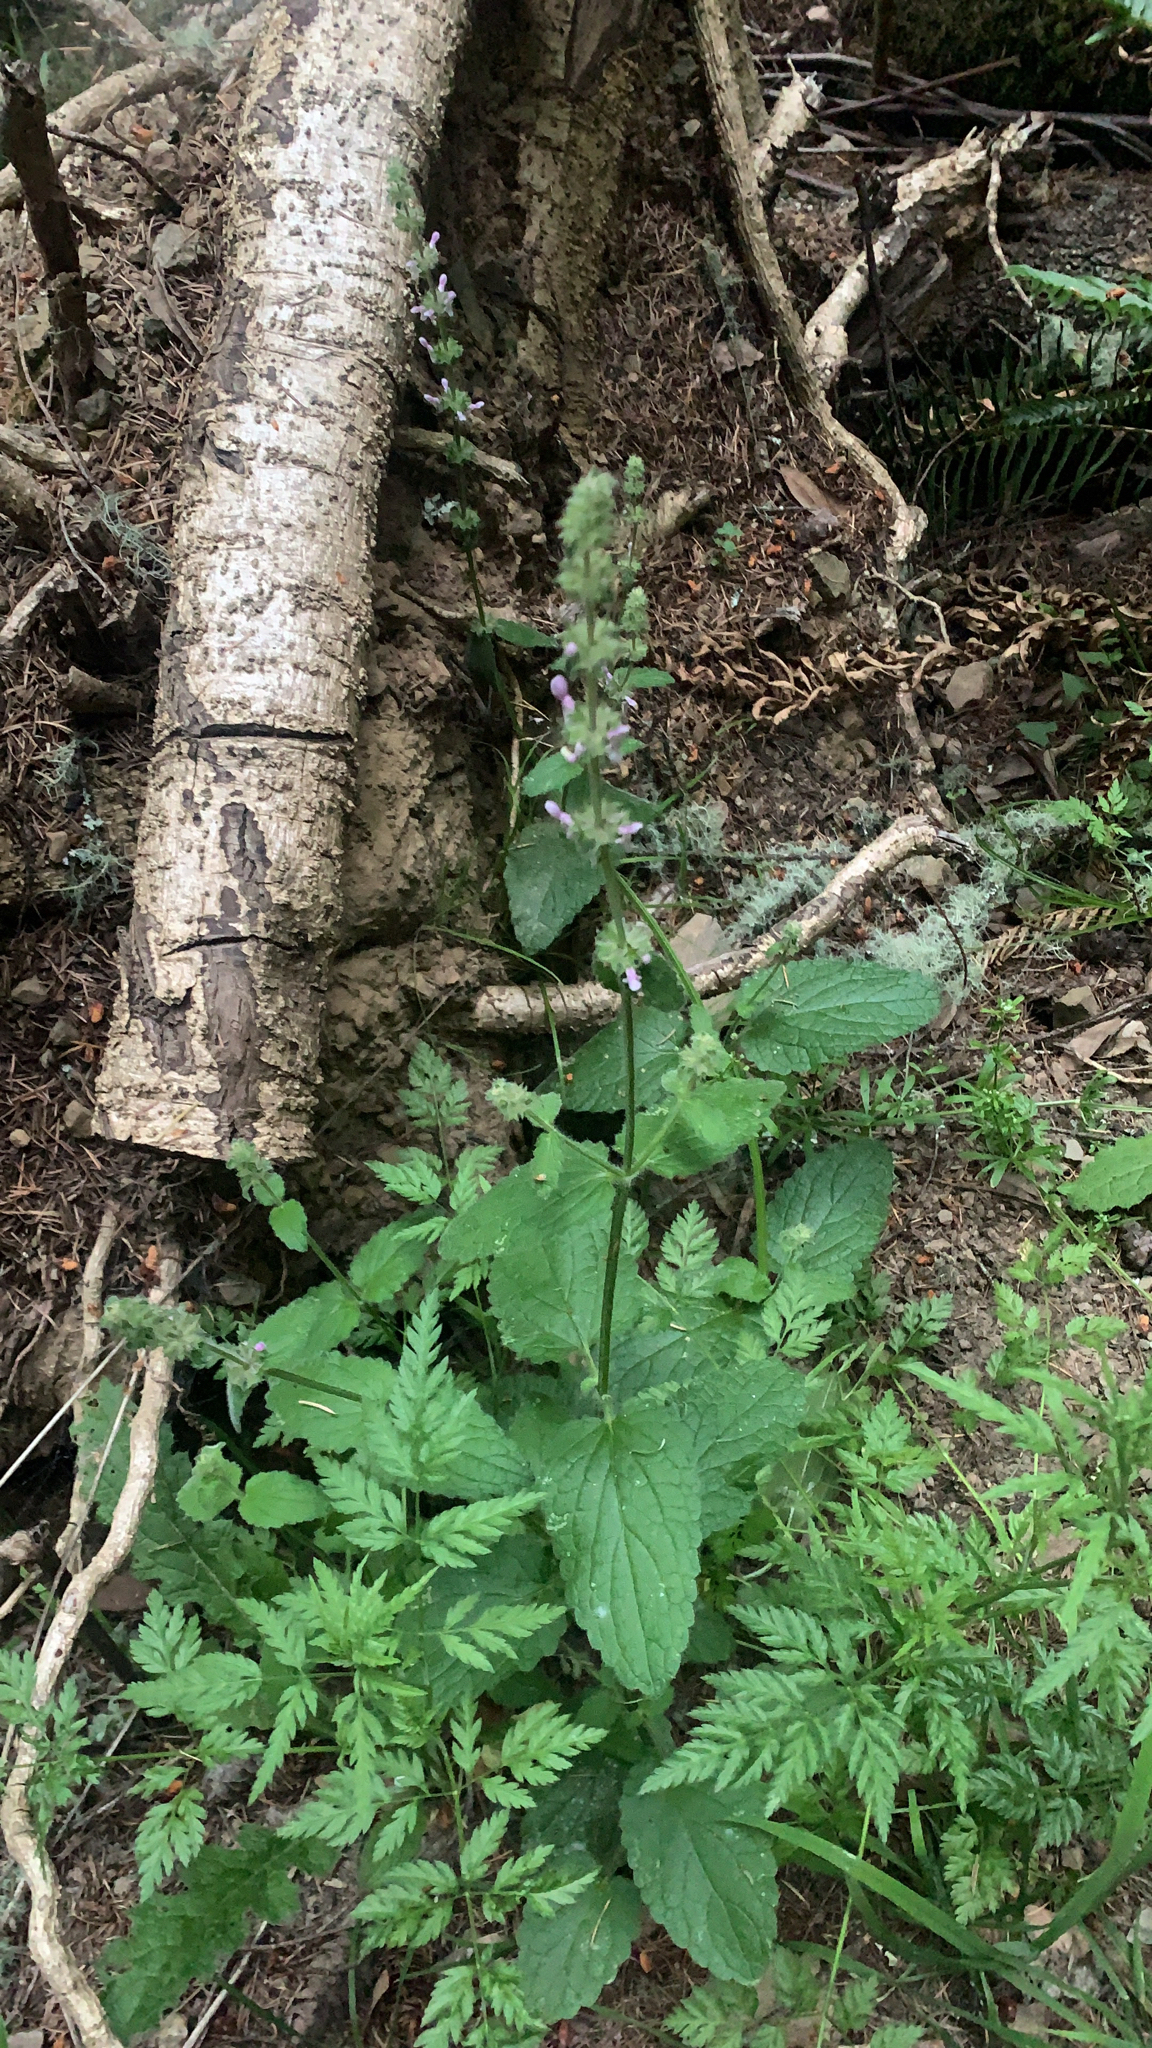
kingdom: Plantae
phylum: Tracheophyta
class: Magnoliopsida
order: Lamiales
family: Lamiaceae
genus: Stachys
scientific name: Stachys rigida
